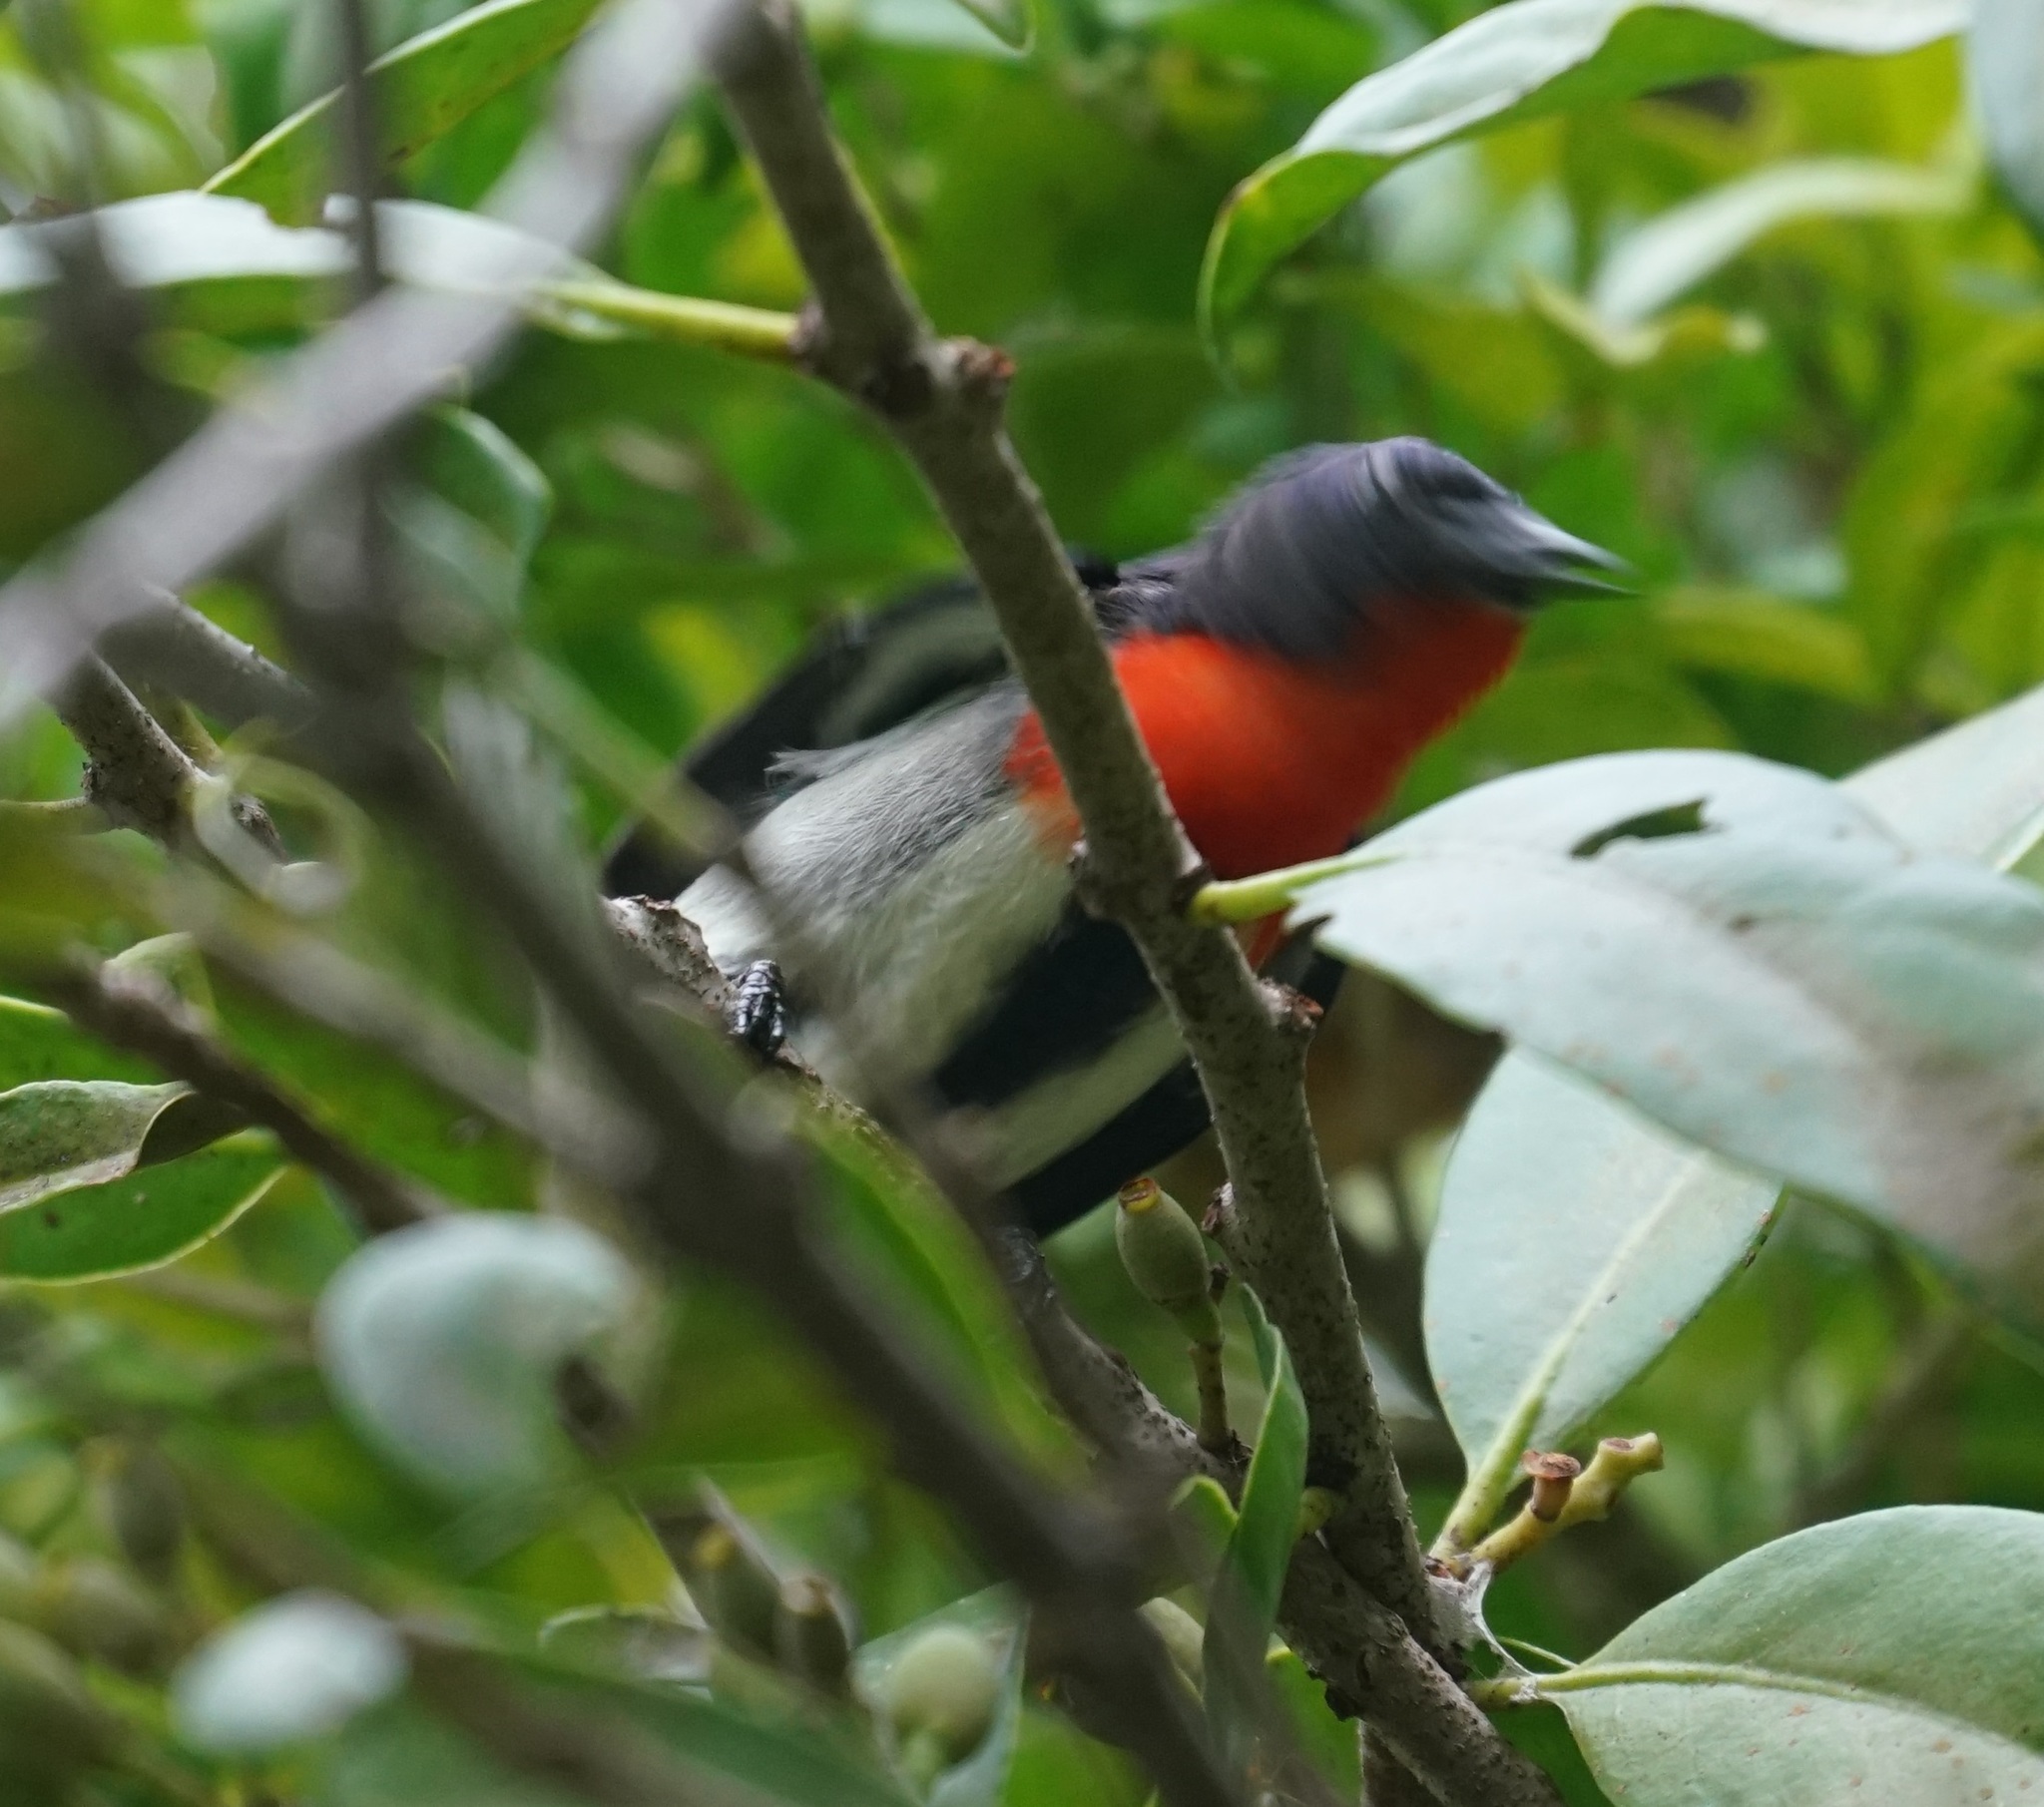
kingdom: Animalia
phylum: Chordata
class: Aves
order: Passeriformes
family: Dicaeidae
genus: Dicaeum
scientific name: Dicaeum hirundinaceum
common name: Mistletoebird
